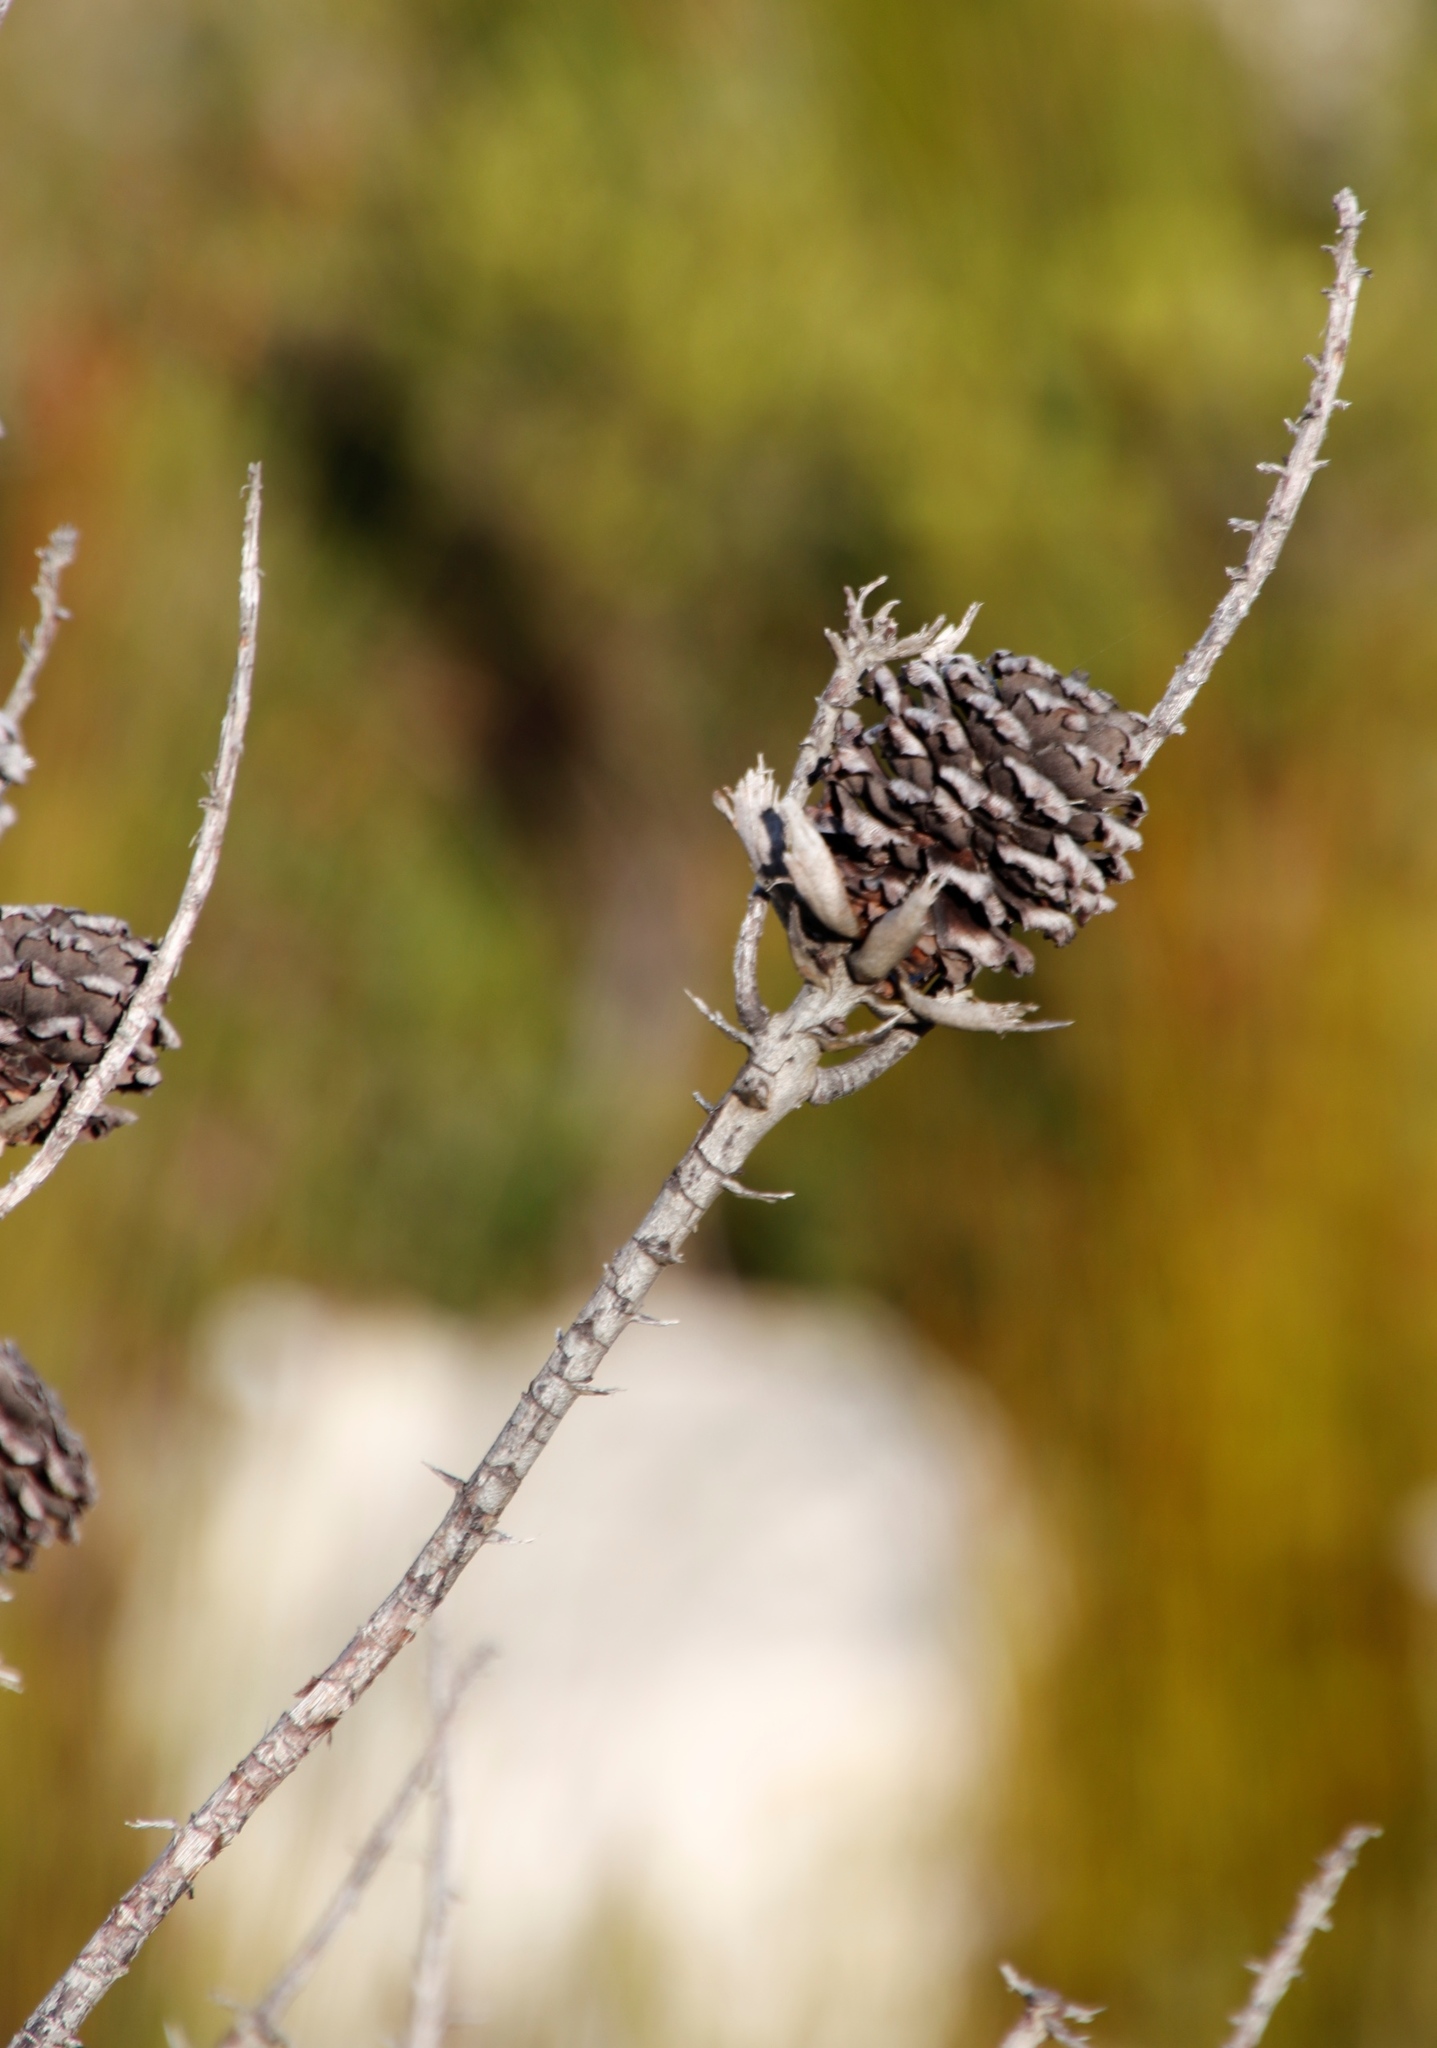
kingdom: Plantae
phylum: Tracheophyta
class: Magnoliopsida
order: Proteales
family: Proteaceae
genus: Leucadendron
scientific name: Leucadendron xanthoconus
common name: Sickle-leaf conebush
